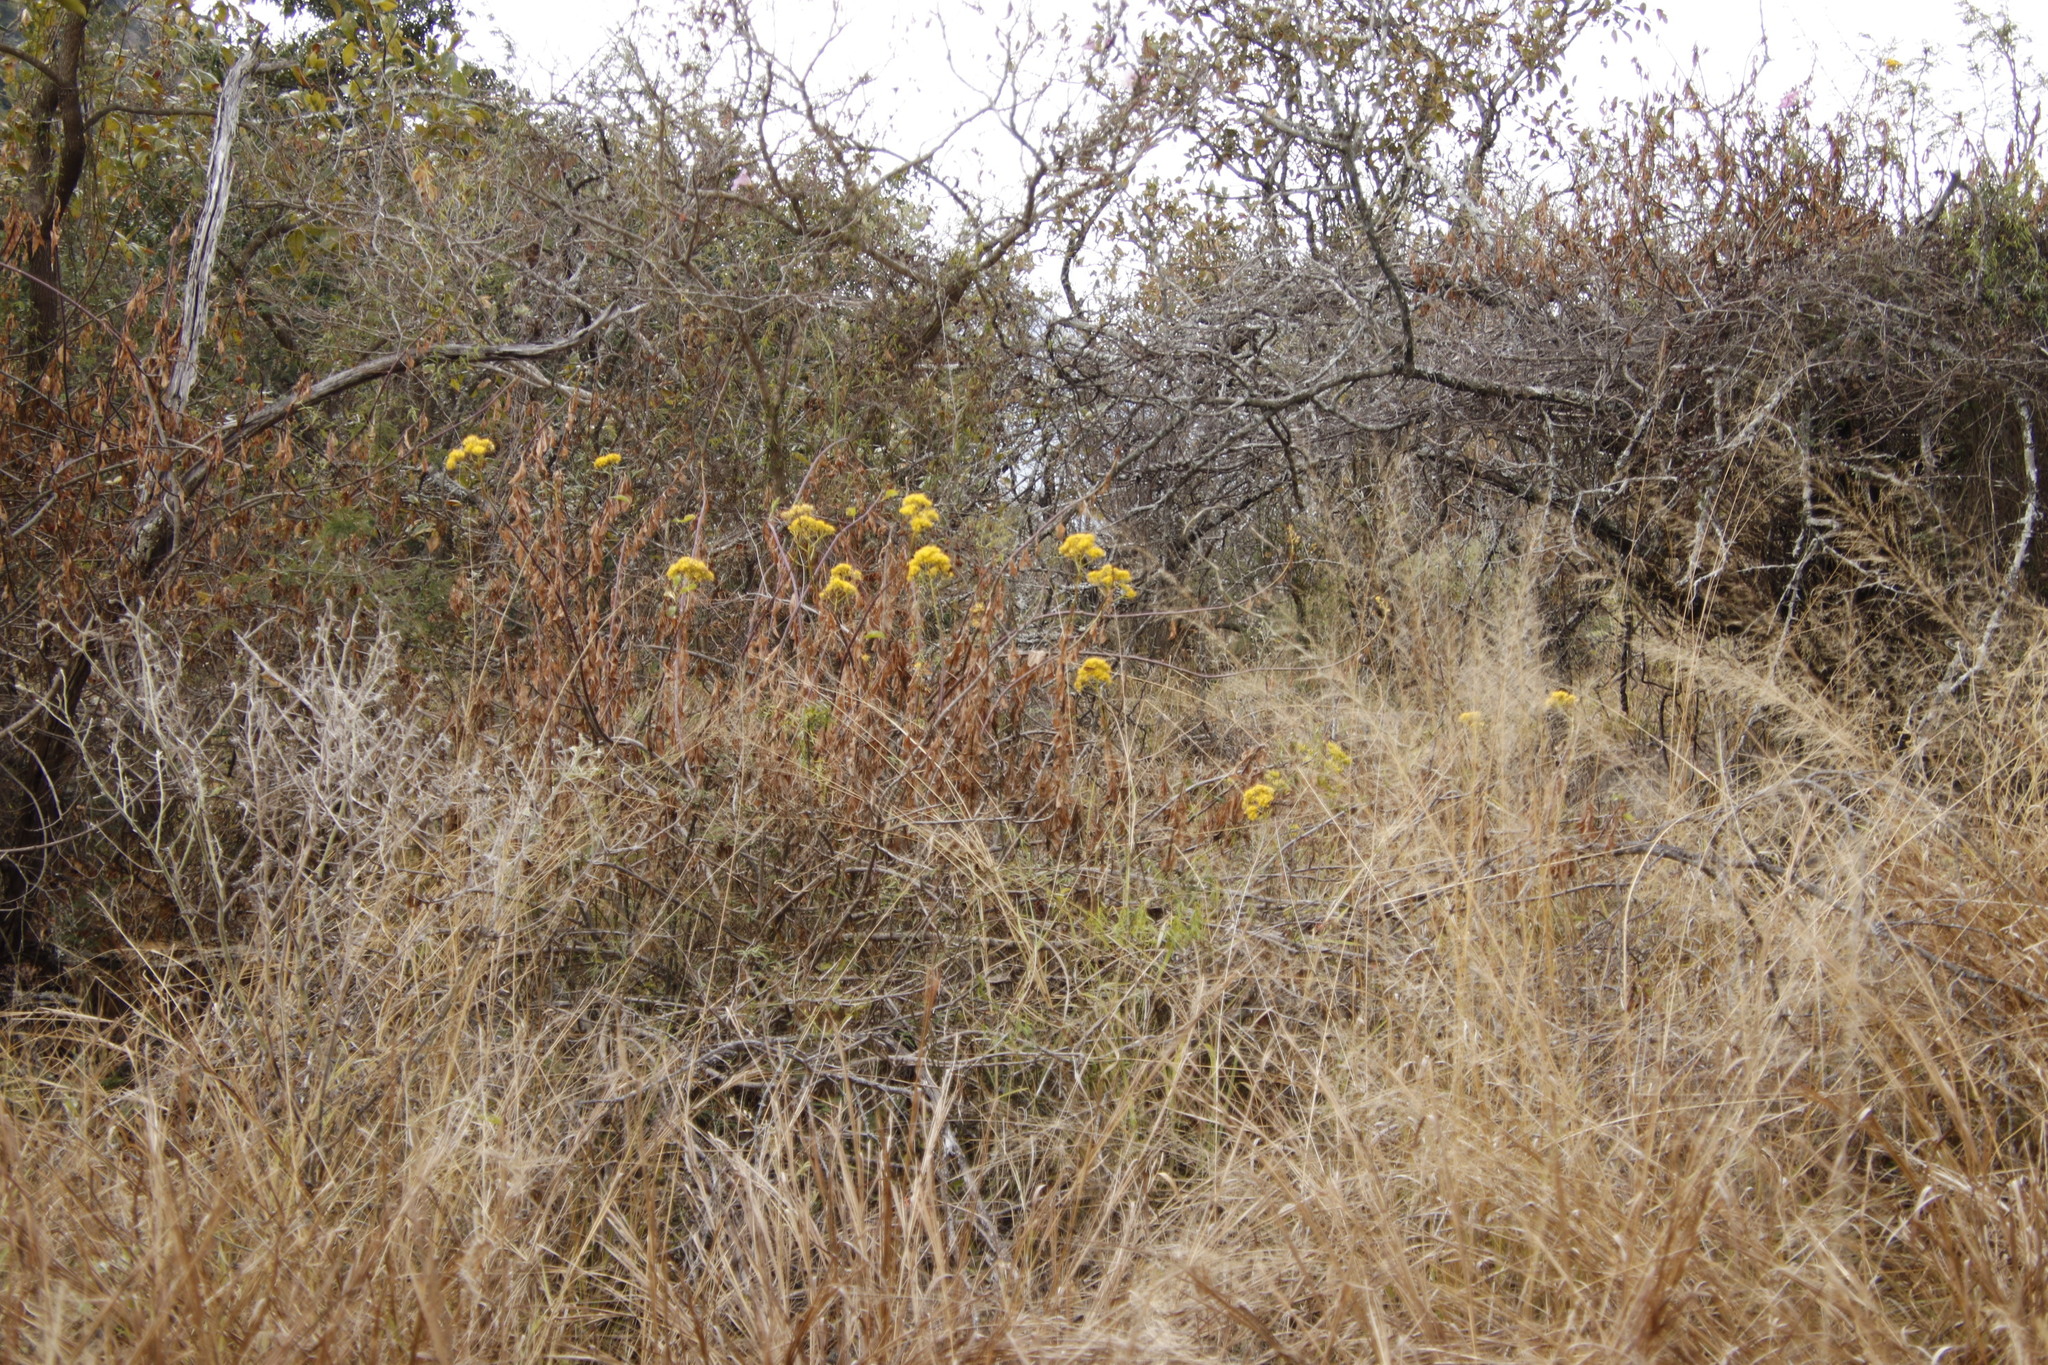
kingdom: Plantae
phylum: Tracheophyta
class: Magnoliopsida
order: Asterales
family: Asteraceae
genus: Senecio
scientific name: Senecio brachypodus
